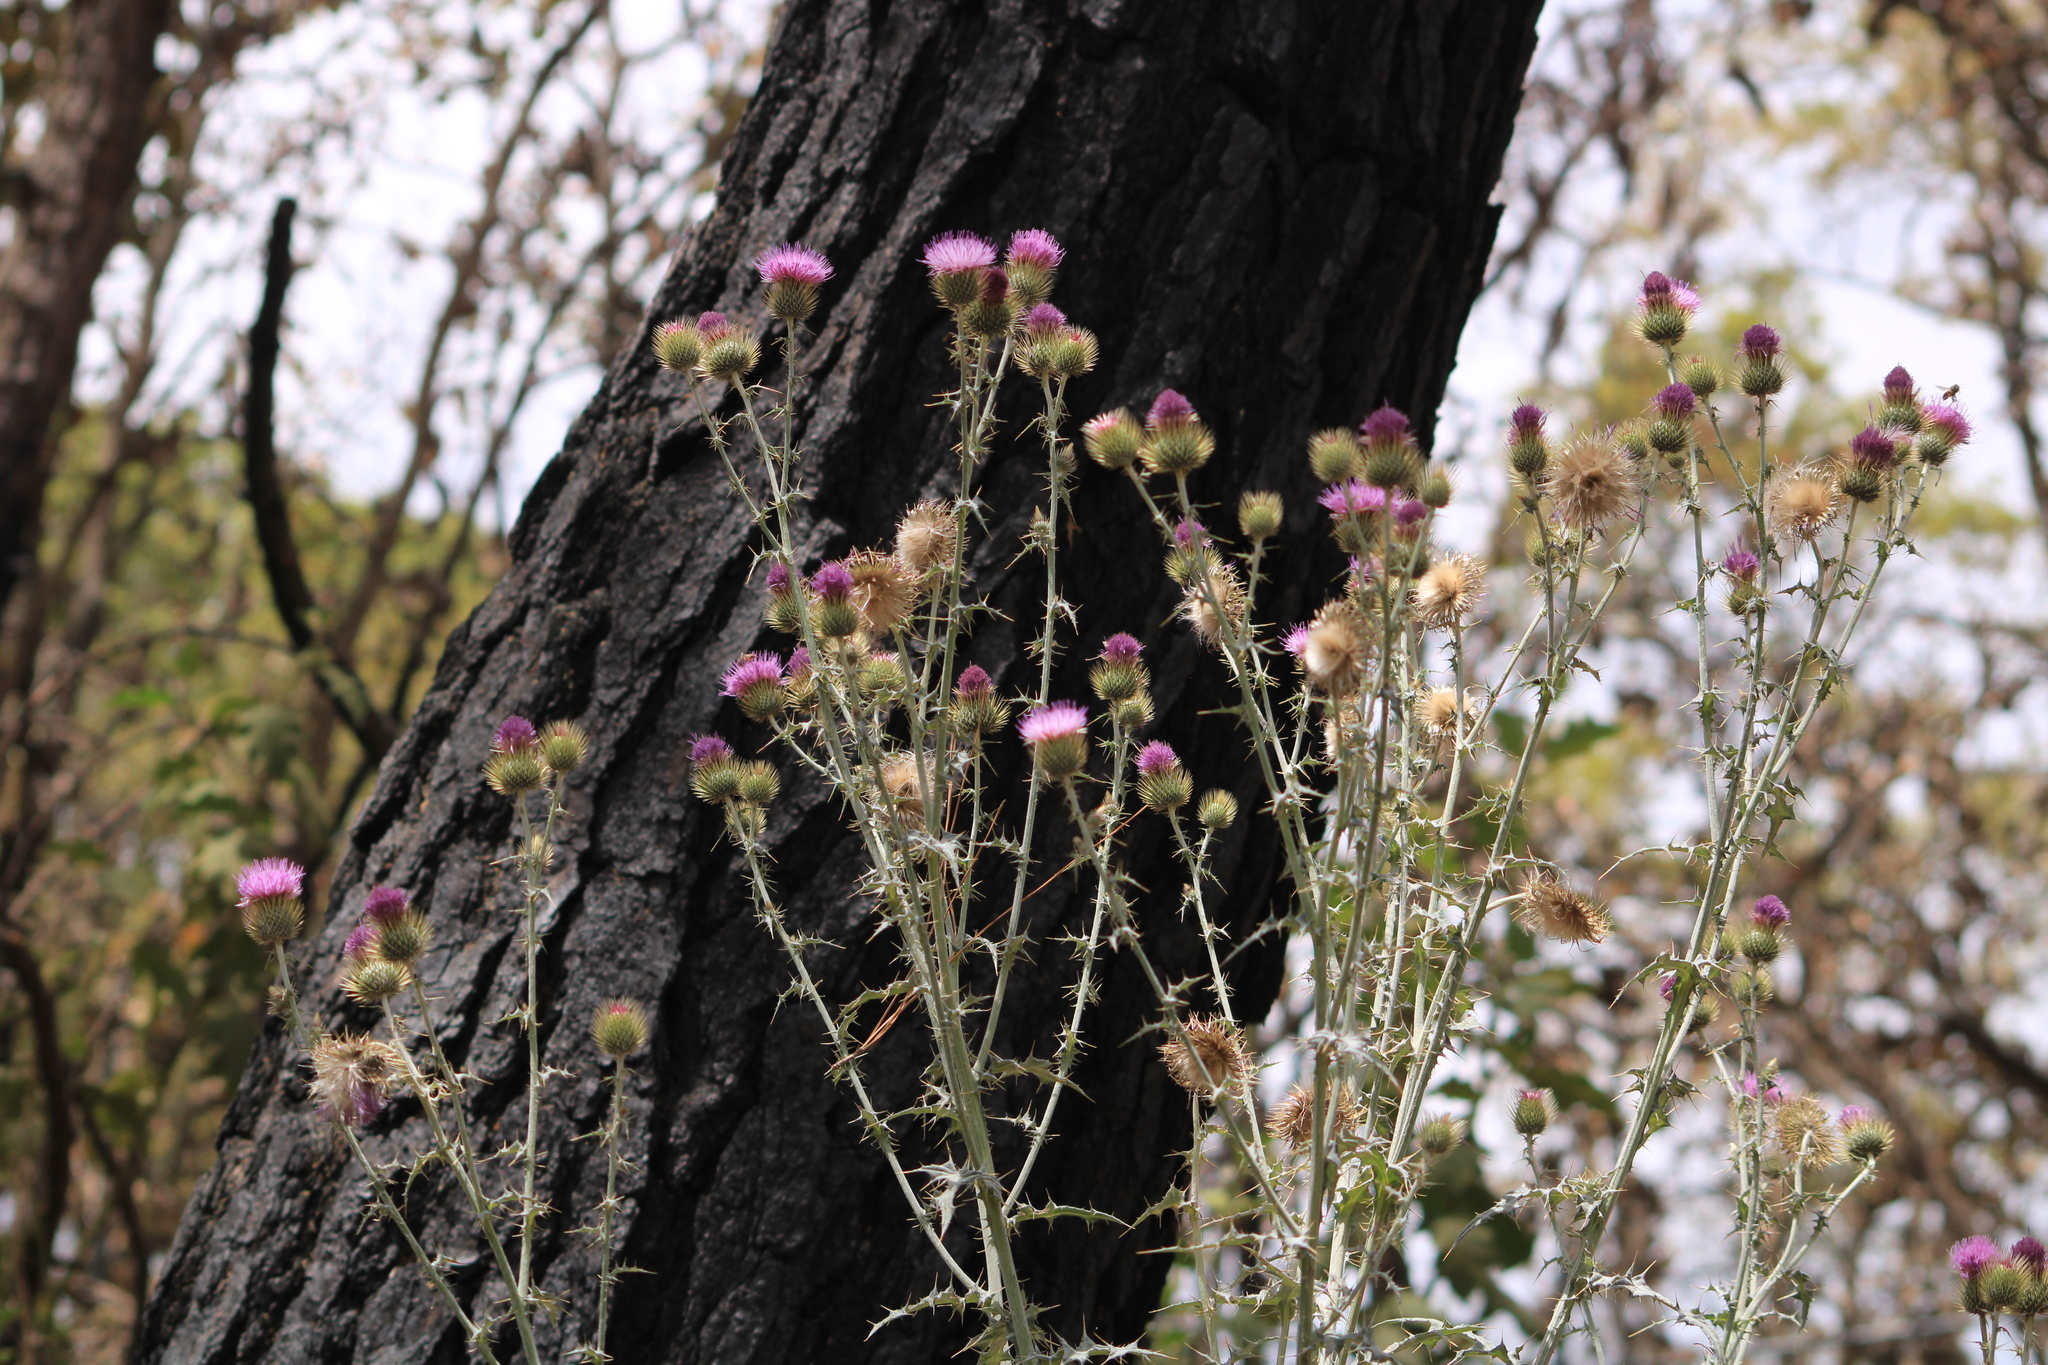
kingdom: Plantae
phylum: Tracheophyta
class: Magnoliopsida
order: Asterales
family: Asteraceae
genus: Cirsium
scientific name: Cirsium rhaphilepis
